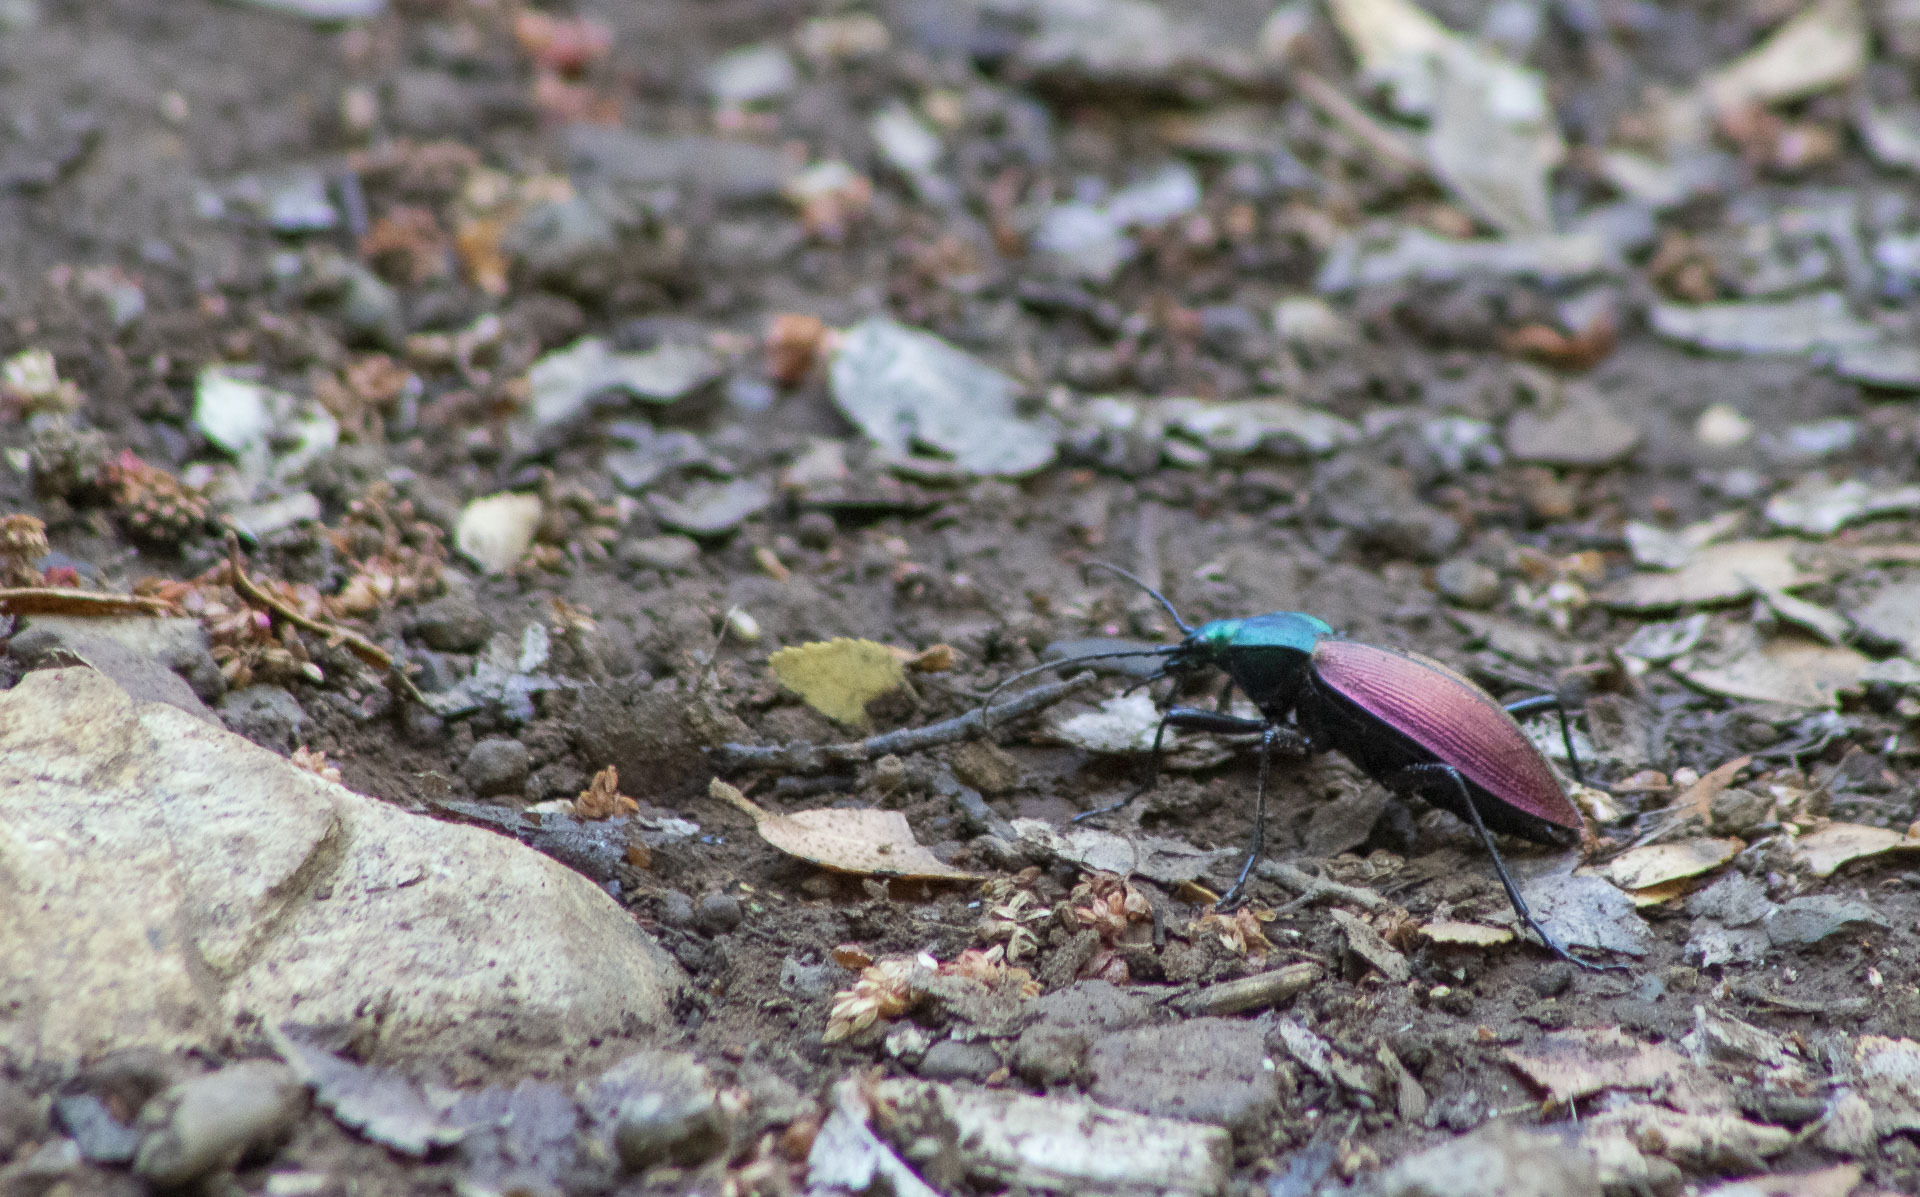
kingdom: Animalia
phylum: Arthropoda
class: Insecta
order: Coleoptera
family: Carabidae
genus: Ceroglossus
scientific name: Ceroglossus chilensis
